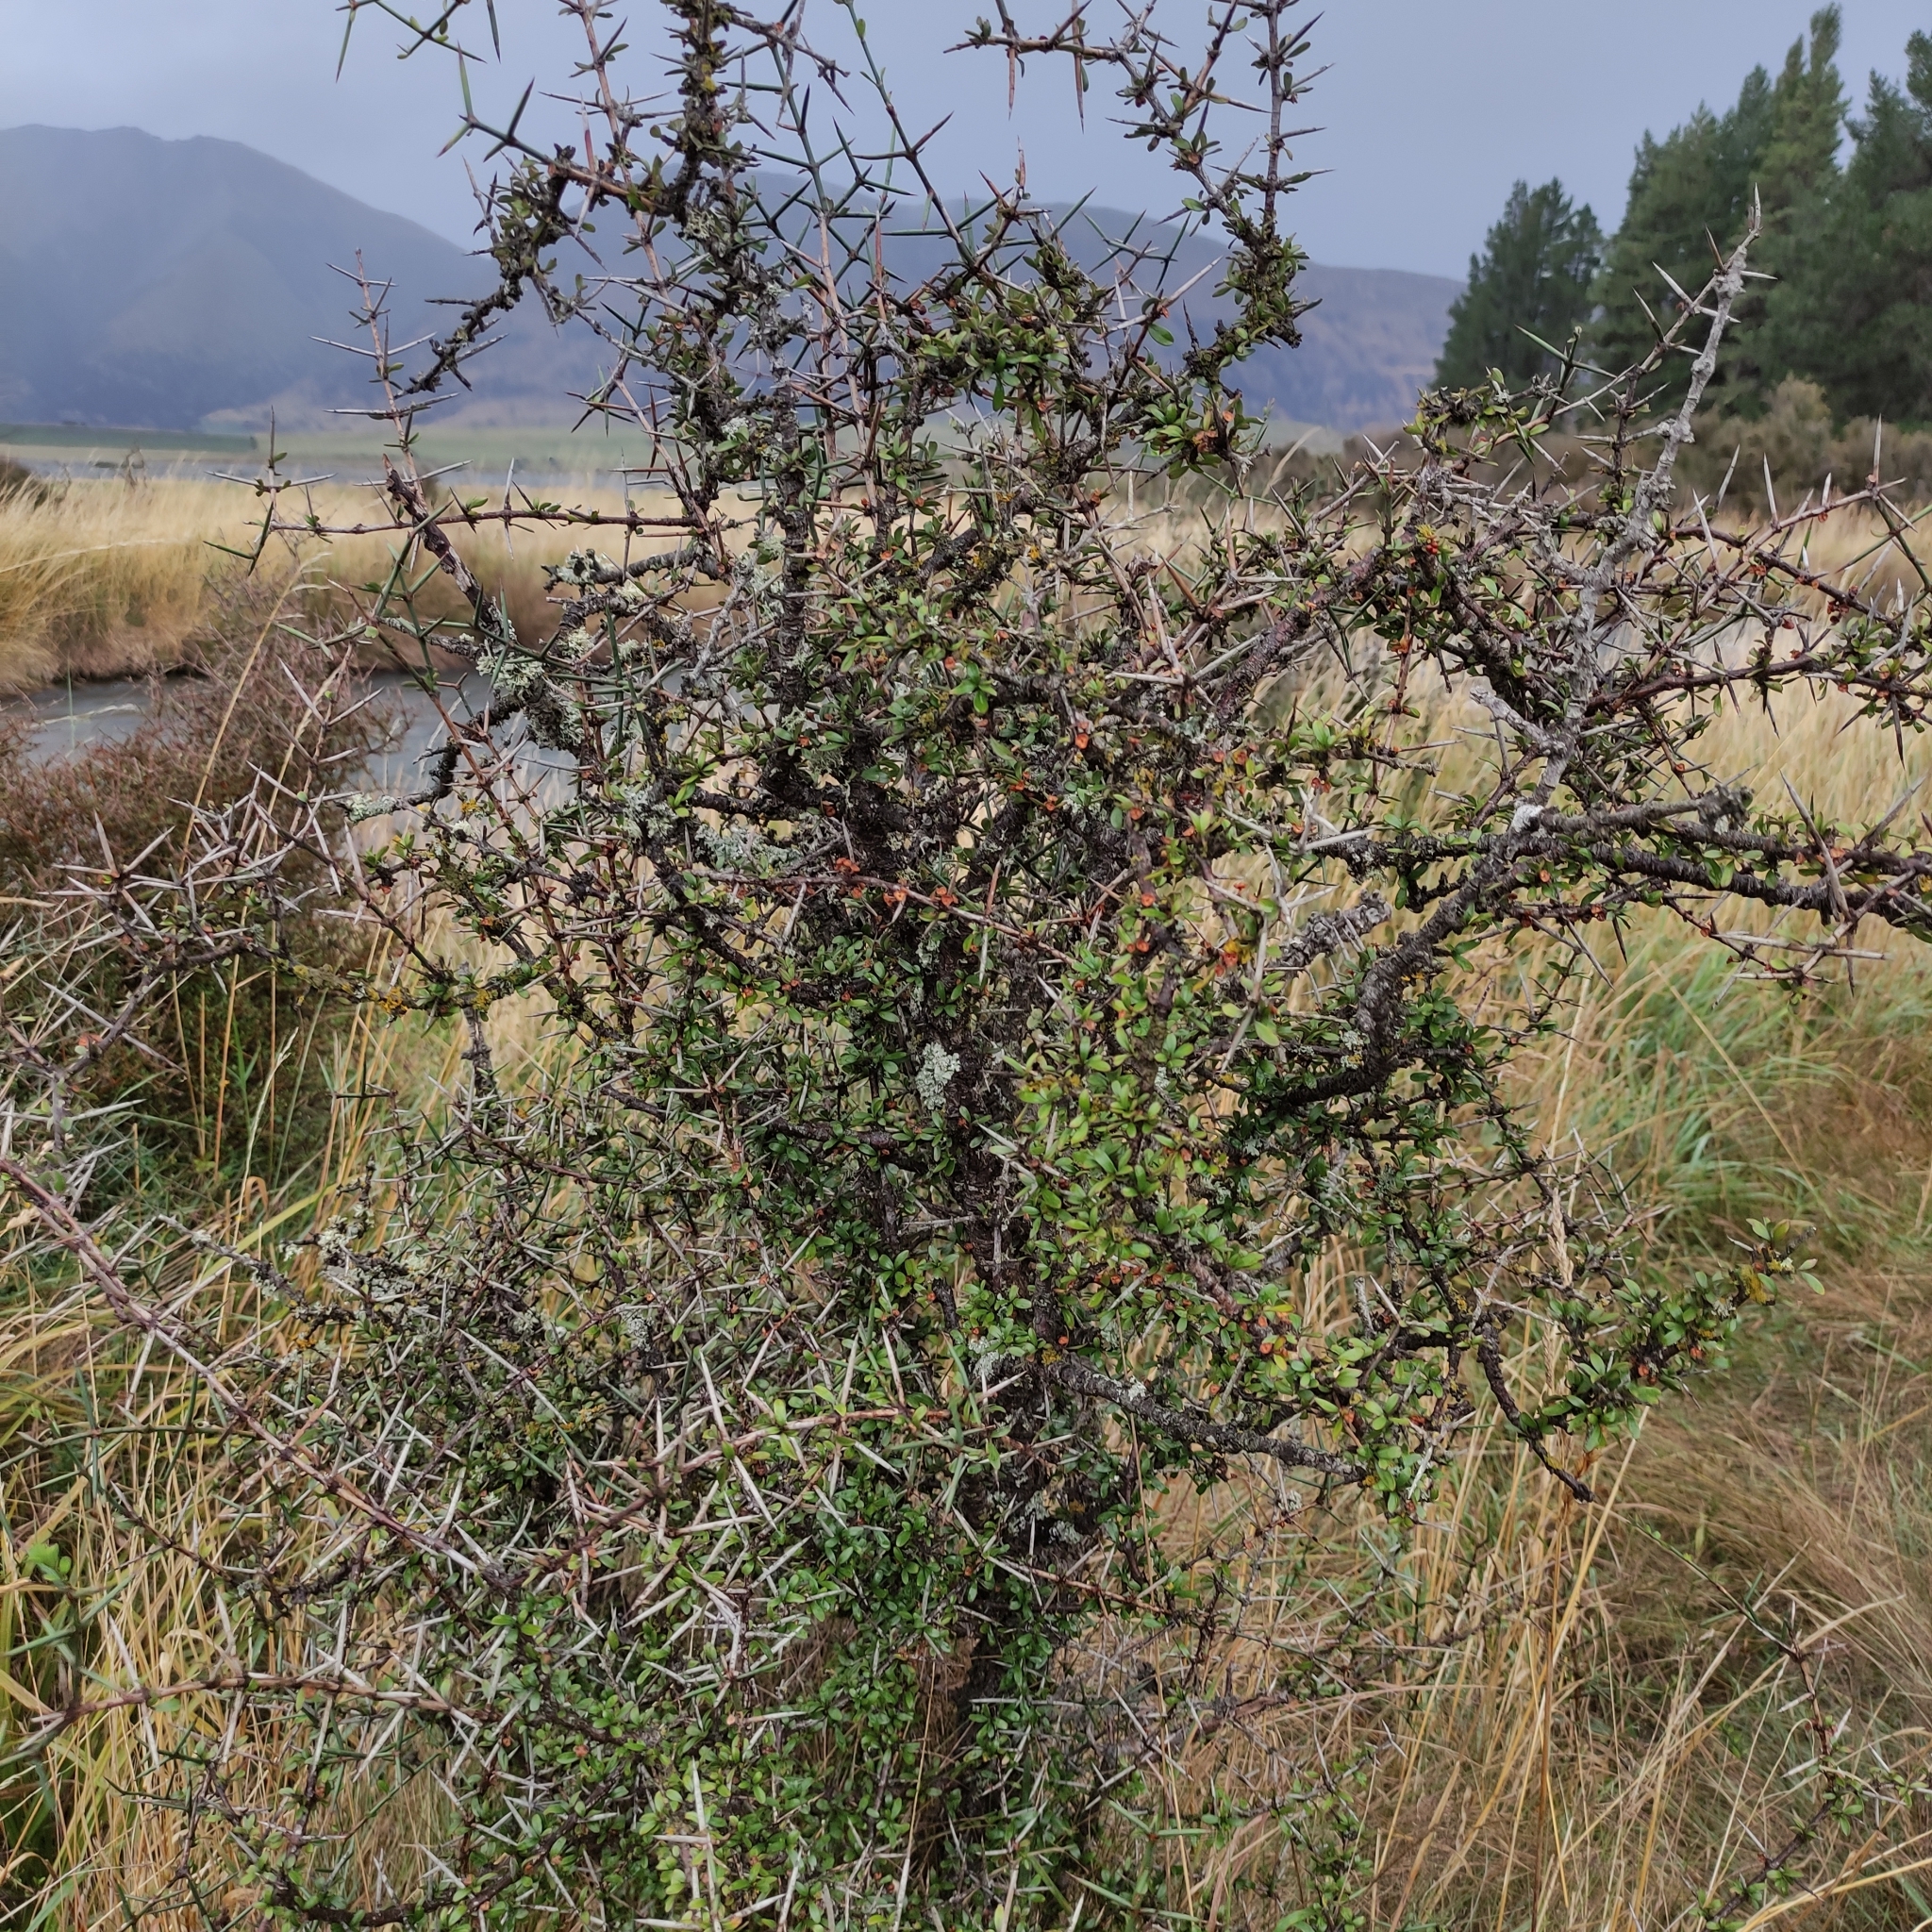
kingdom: Plantae
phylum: Tracheophyta
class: Magnoliopsida
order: Rosales
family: Rhamnaceae
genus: Discaria
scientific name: Discaria toumatou
